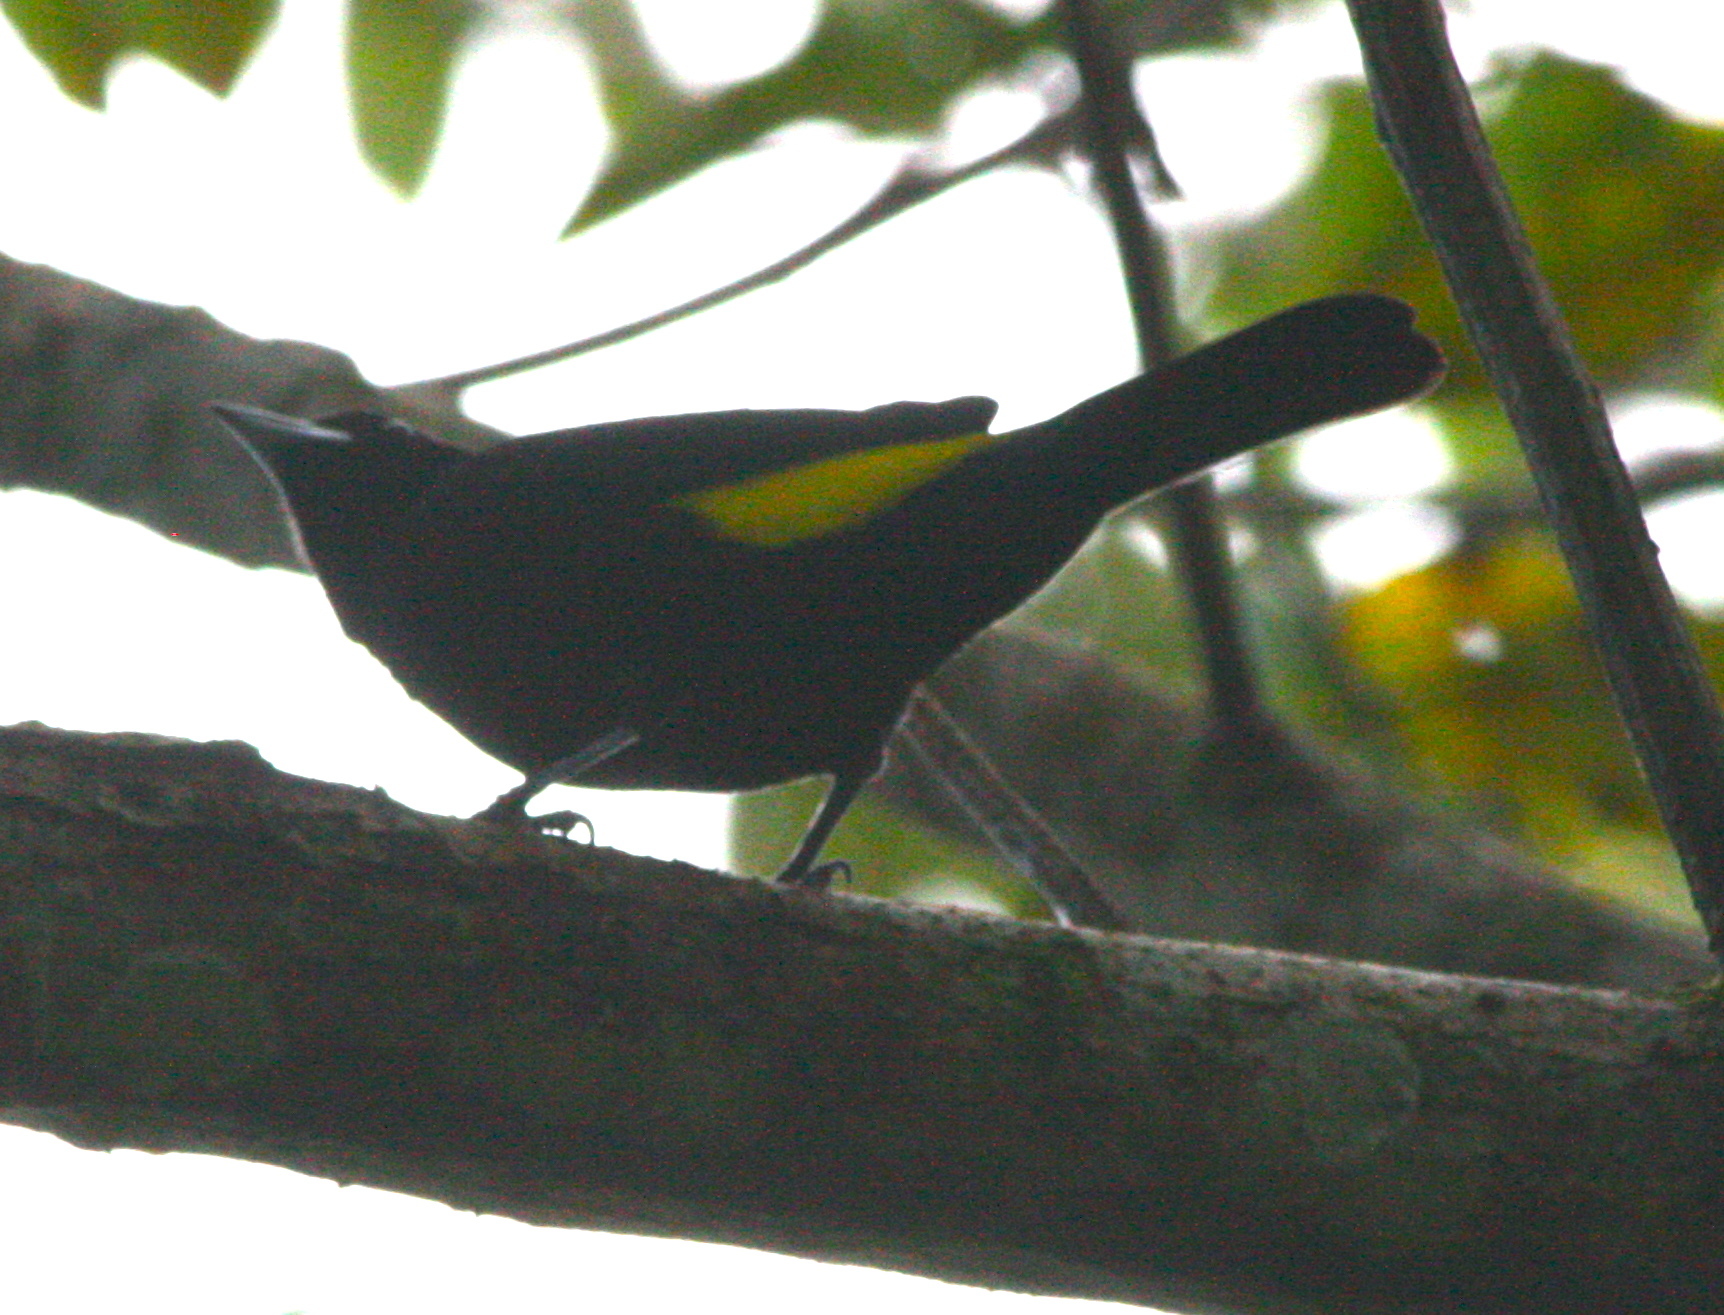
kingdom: Animalia
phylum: Chordata
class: Aves
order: Passeriformes
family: Thraupidae
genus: Ramphocelus
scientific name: Ramphocelus flammigerus
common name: Flame-rumped tanager
